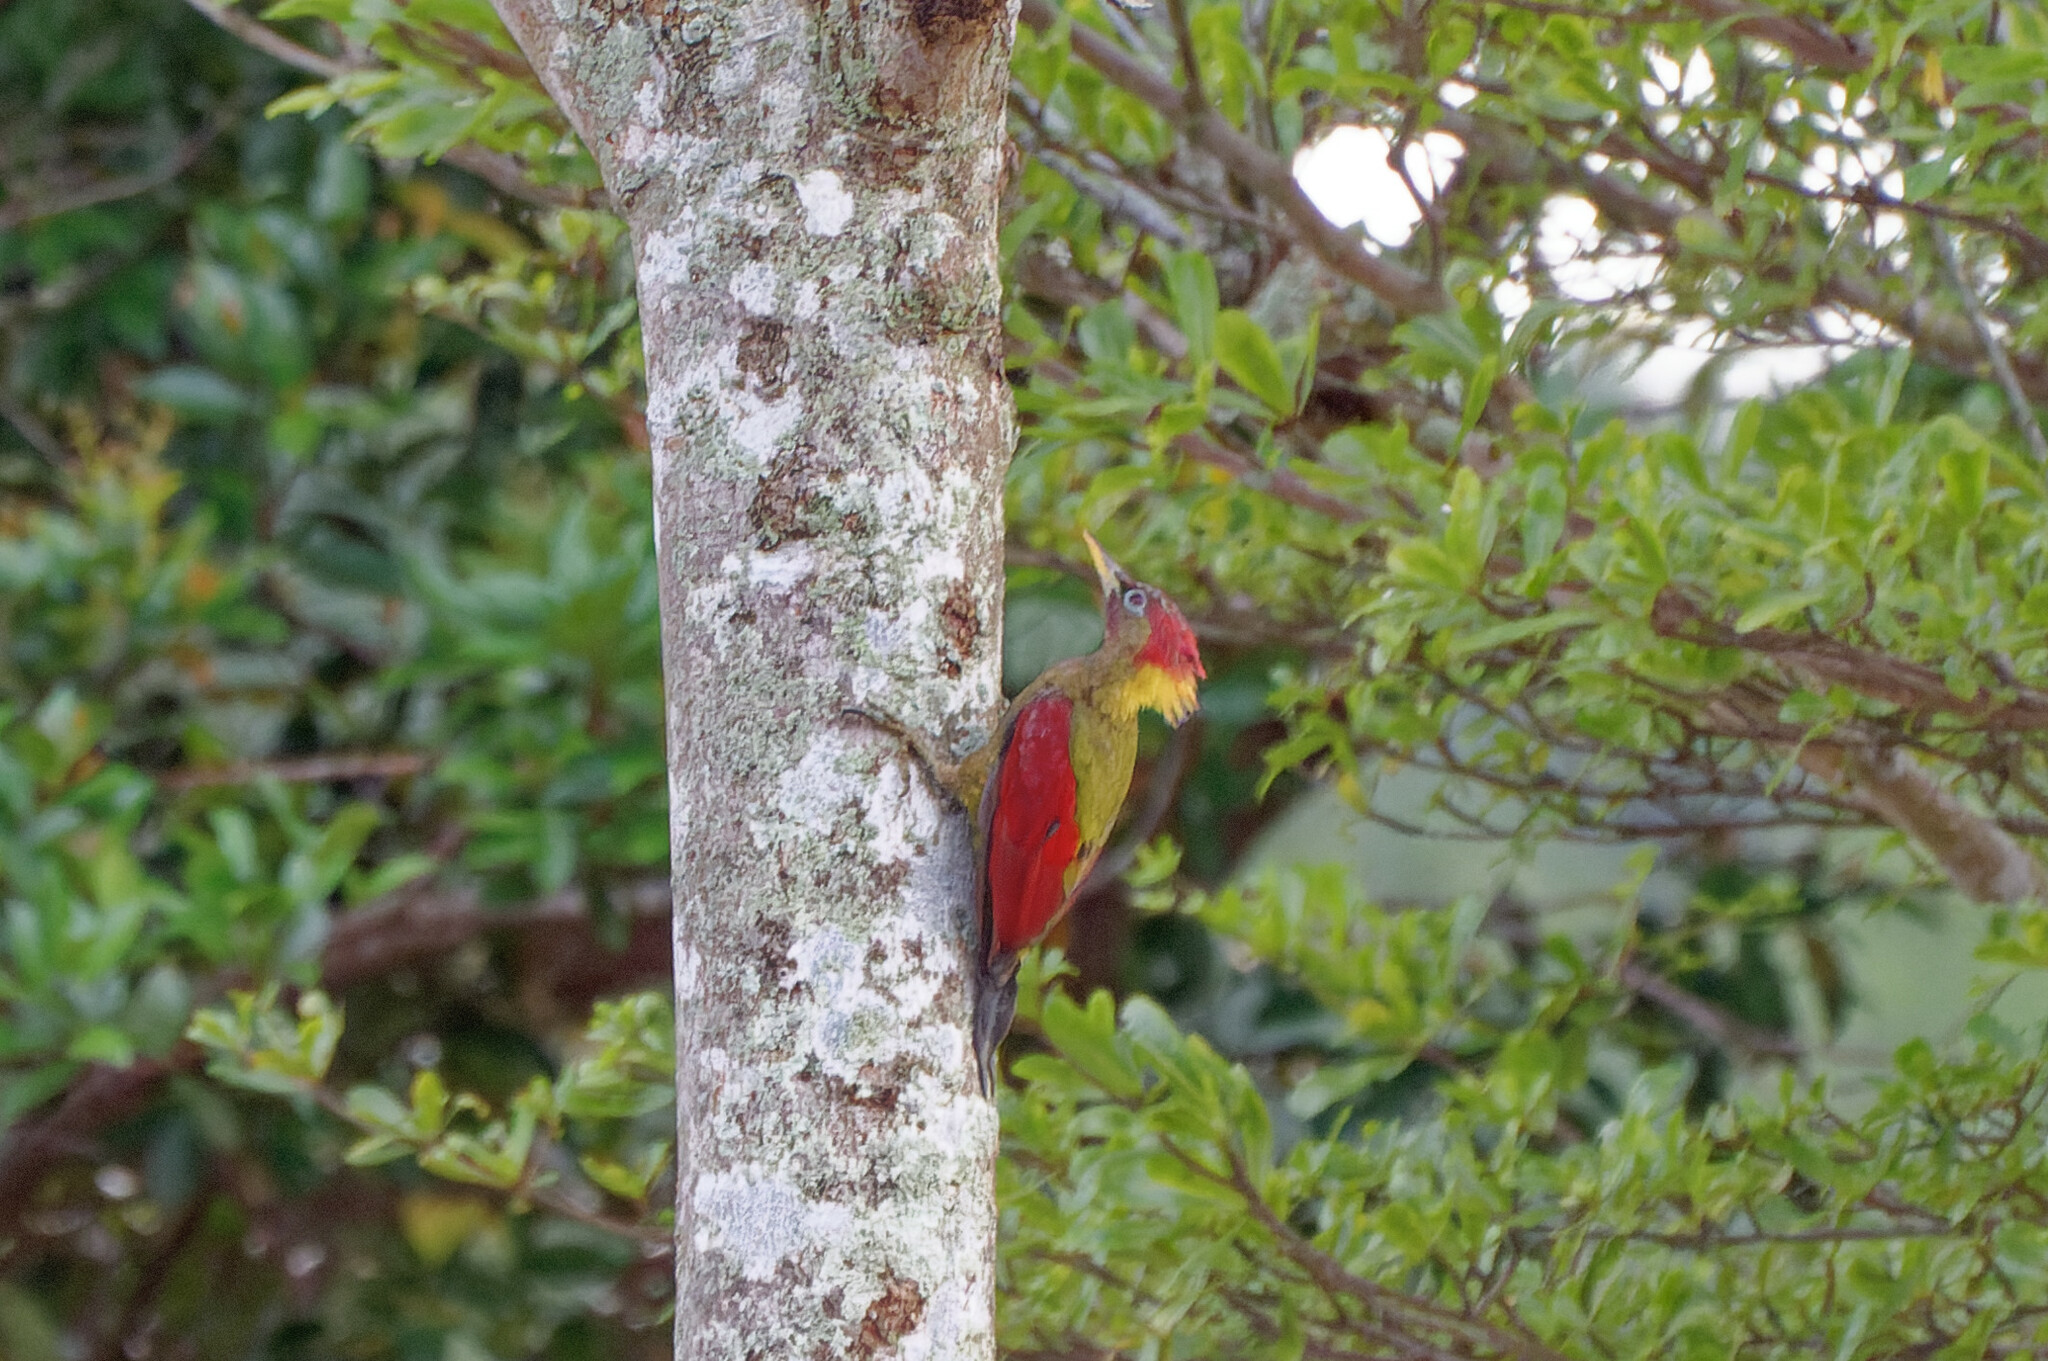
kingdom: Animalia
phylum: Chordata
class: Aves
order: Piciformes
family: Picidae
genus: Picus
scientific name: Picus puniceus
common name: Crimson-winged woodpecker
